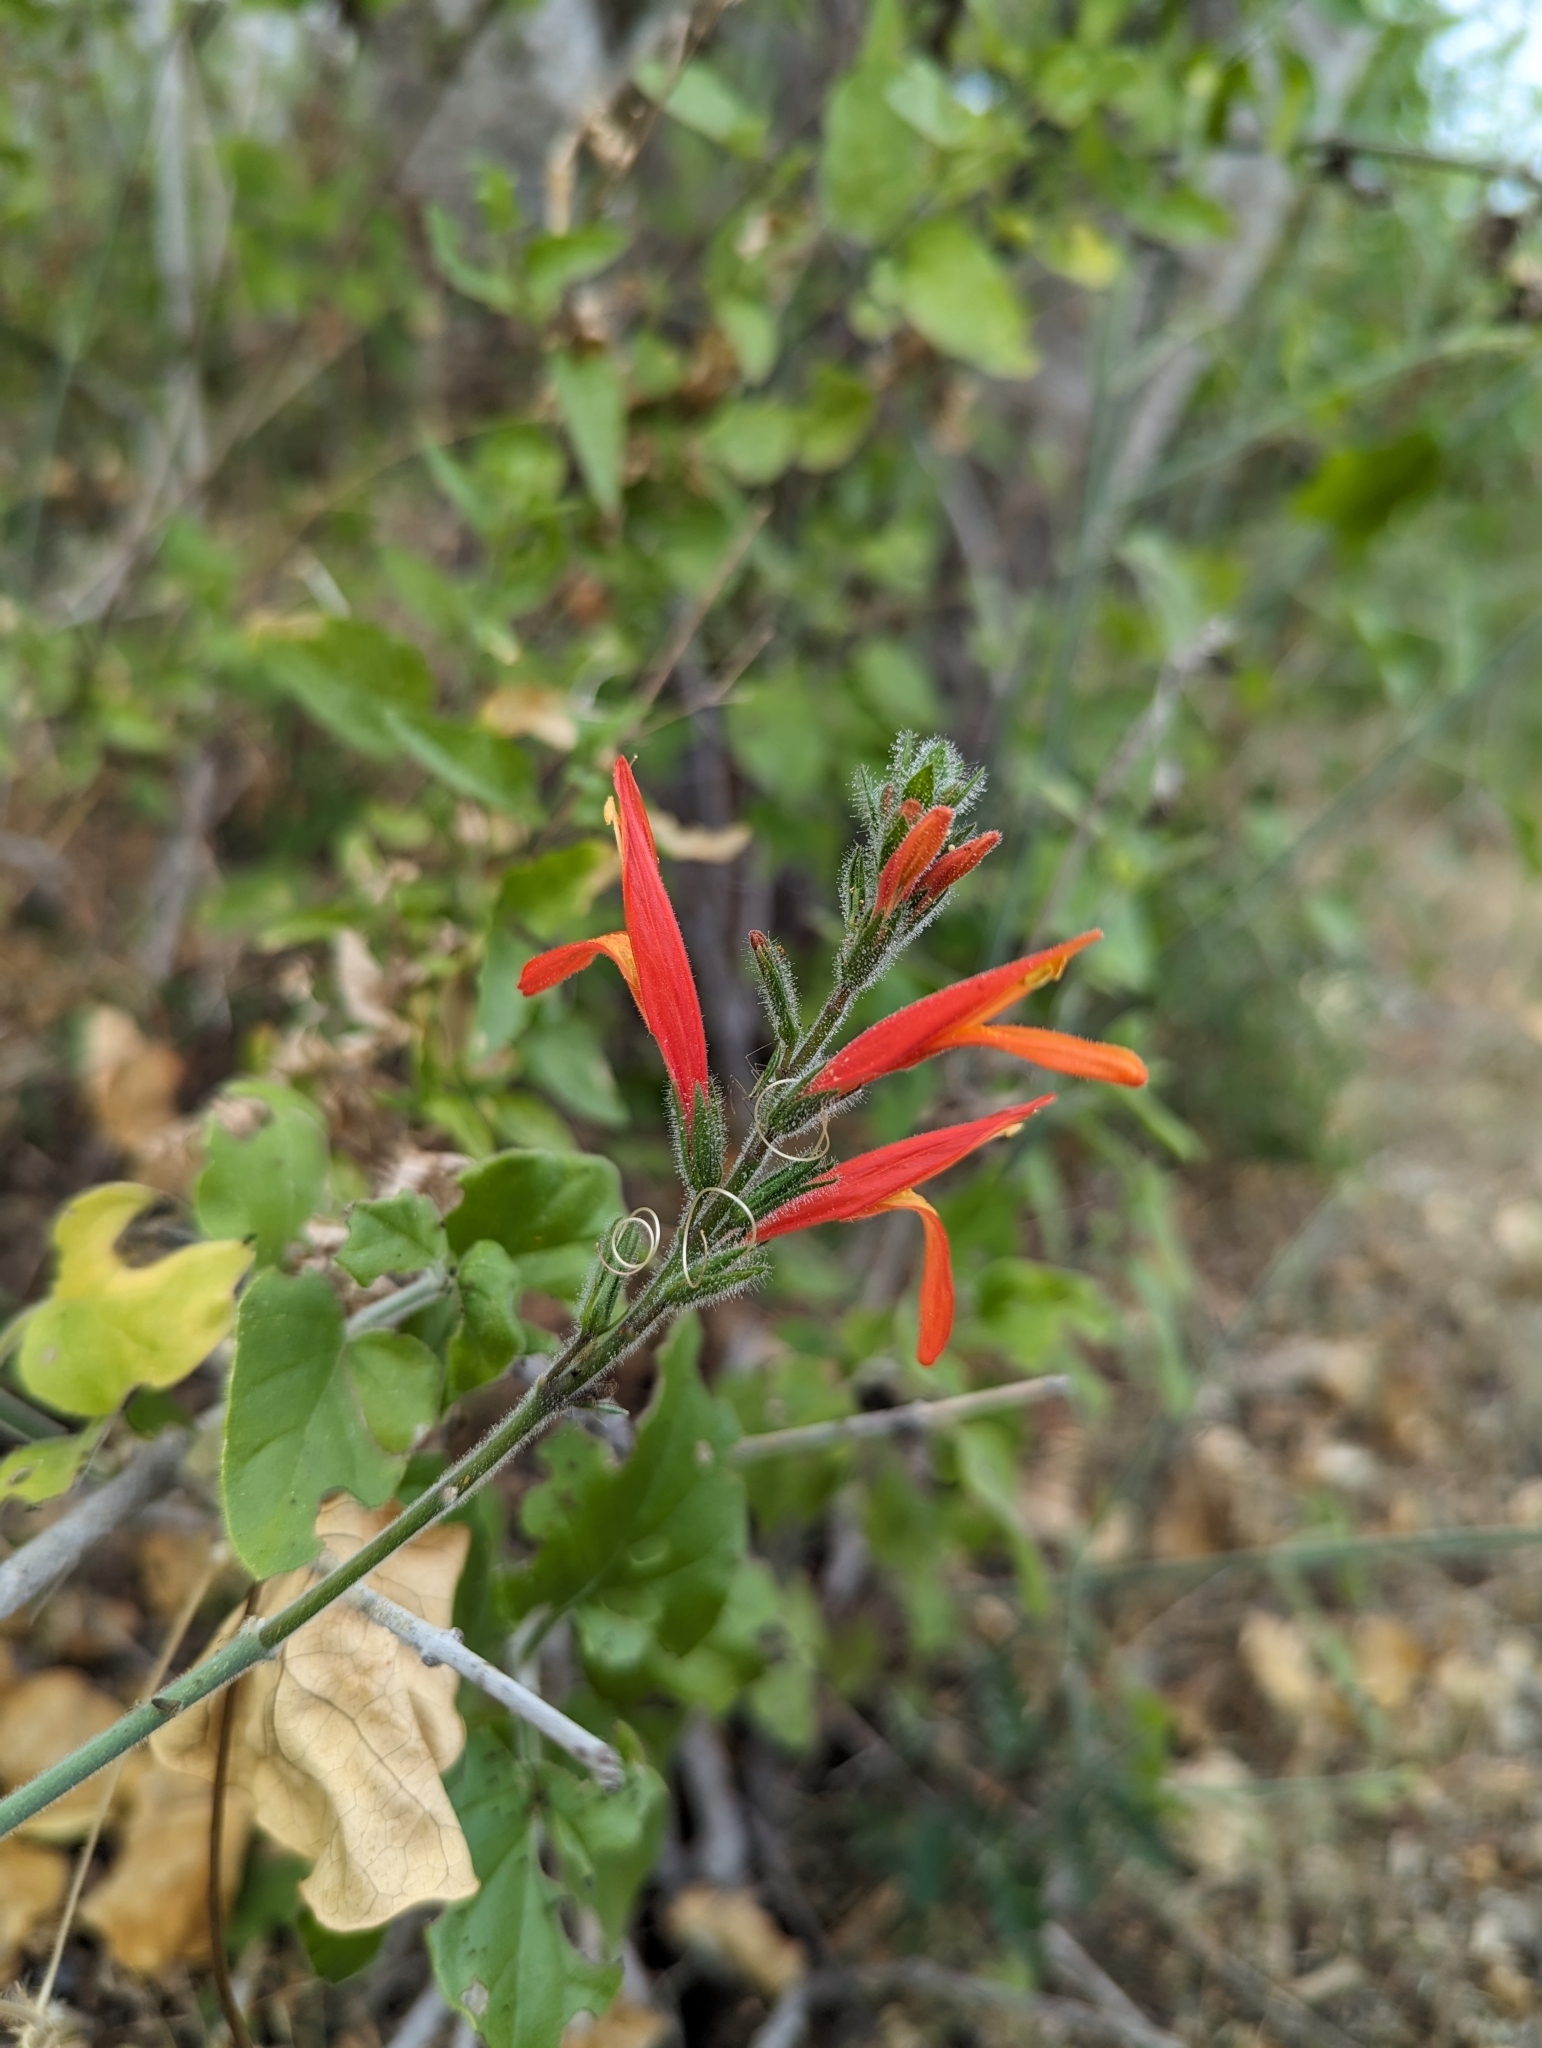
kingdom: Plantae
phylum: Tracheophyta
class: Magnoliopsida
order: Lamiales
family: Acanthaceae
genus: Justicia
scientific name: Justicia californica
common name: Chuparosa-honeysuckle
